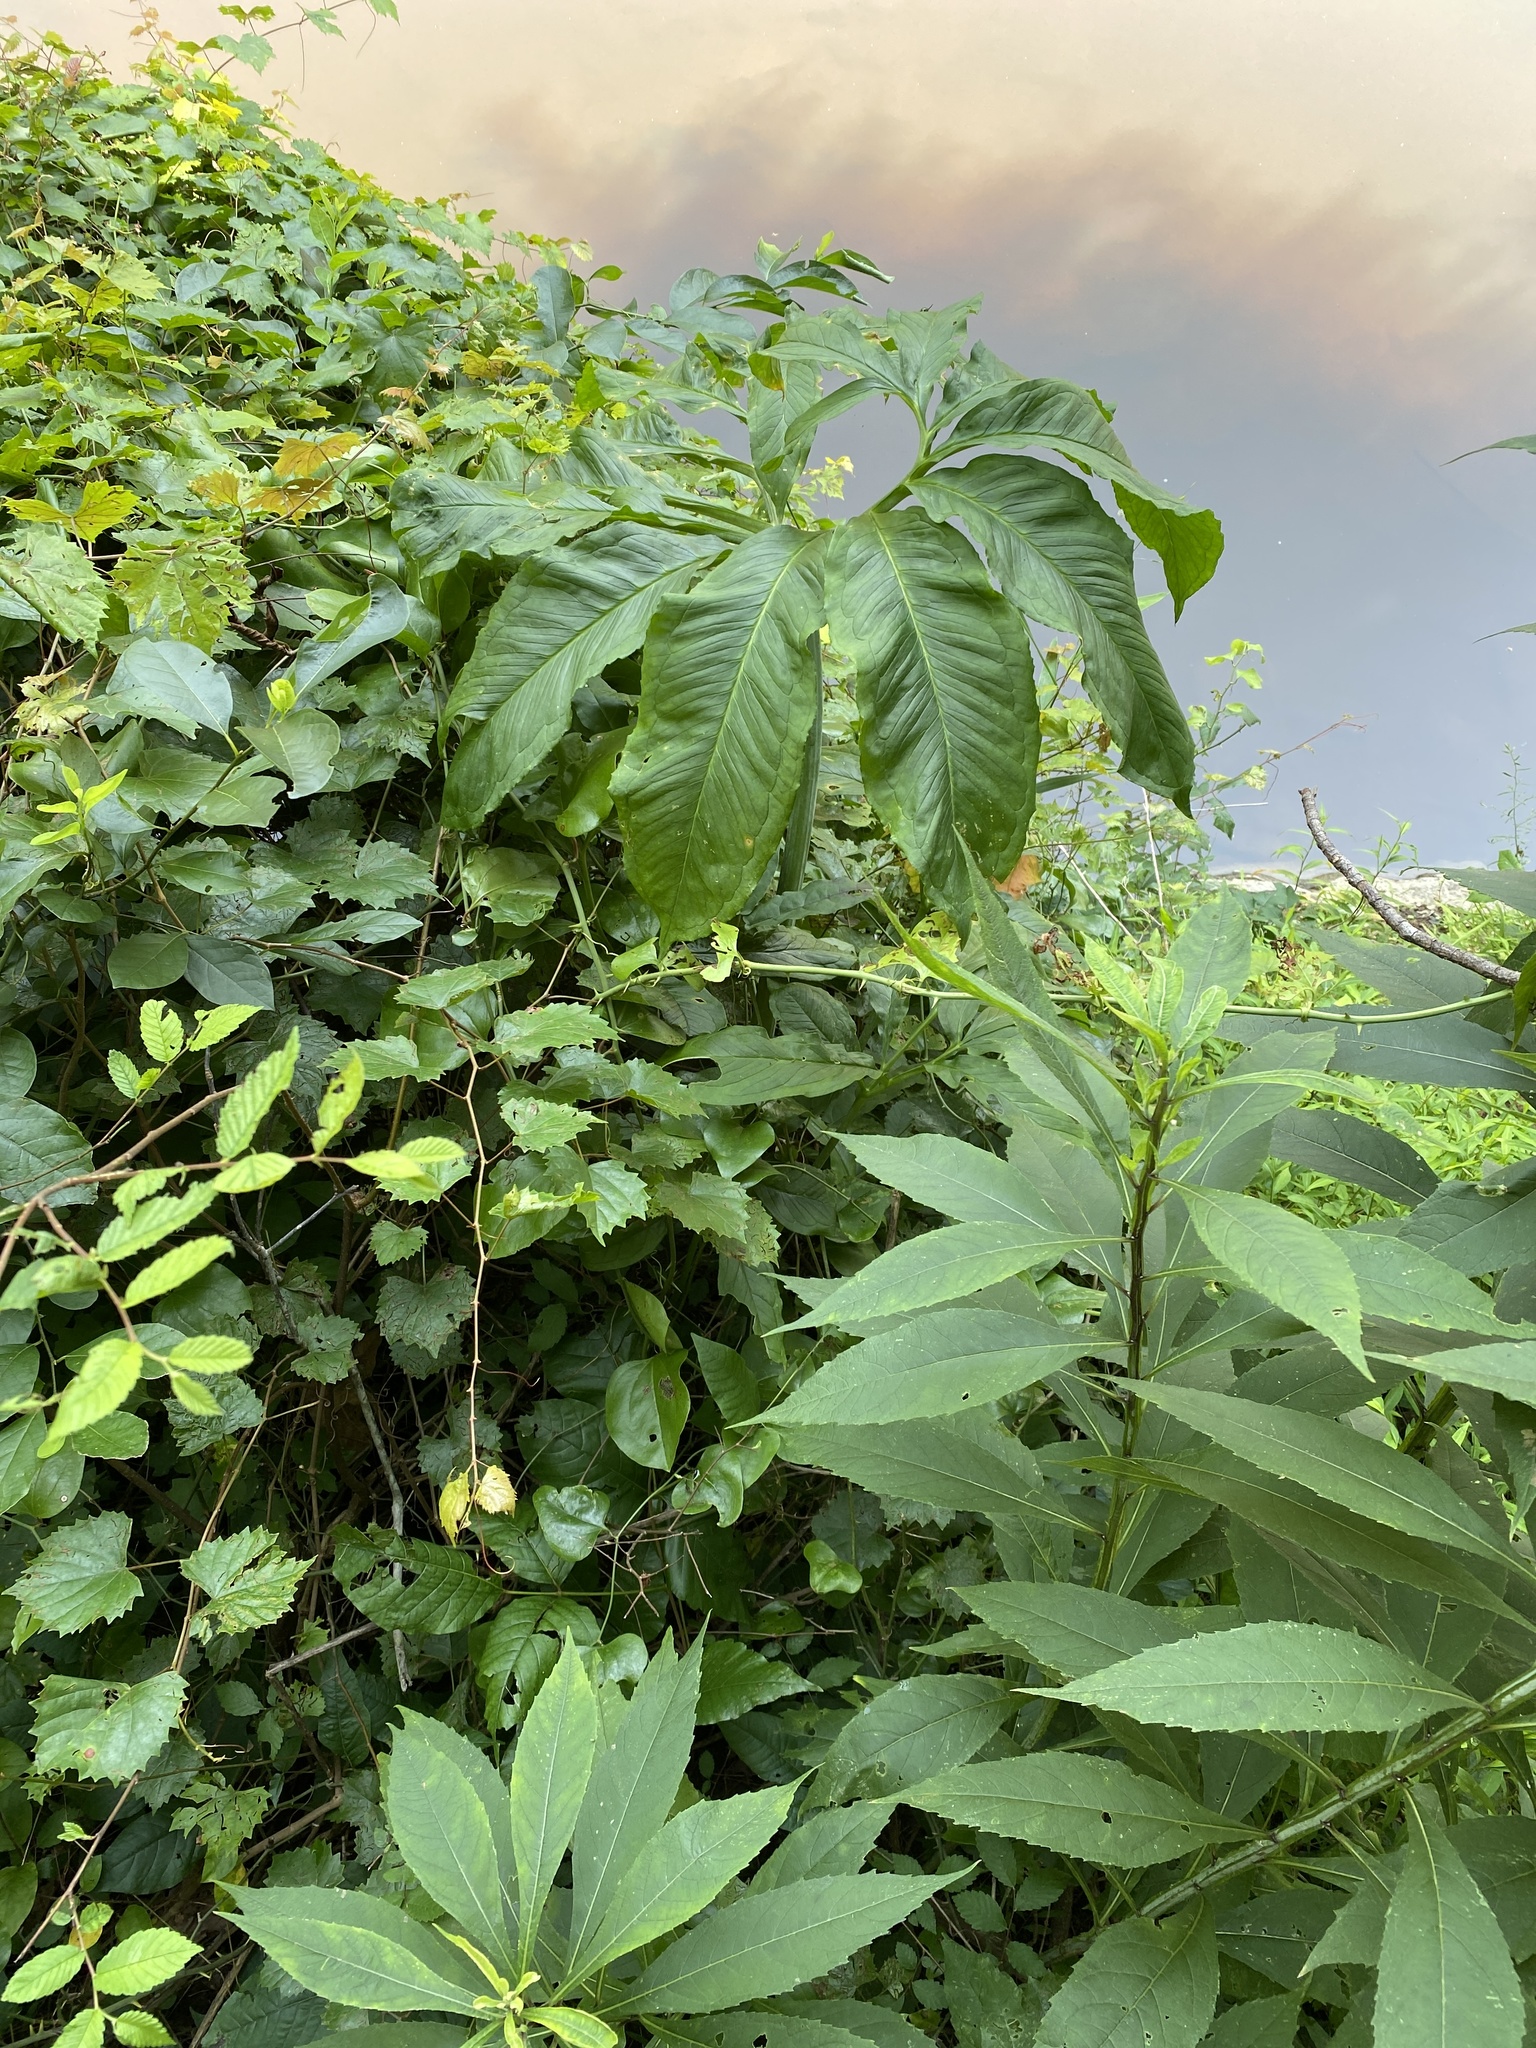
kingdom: Plantae
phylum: Tracheophyta
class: Liliopsida
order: Alismatales
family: Araceae
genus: Arisaema
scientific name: Arisaema dracontium
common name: Dragon-arum
